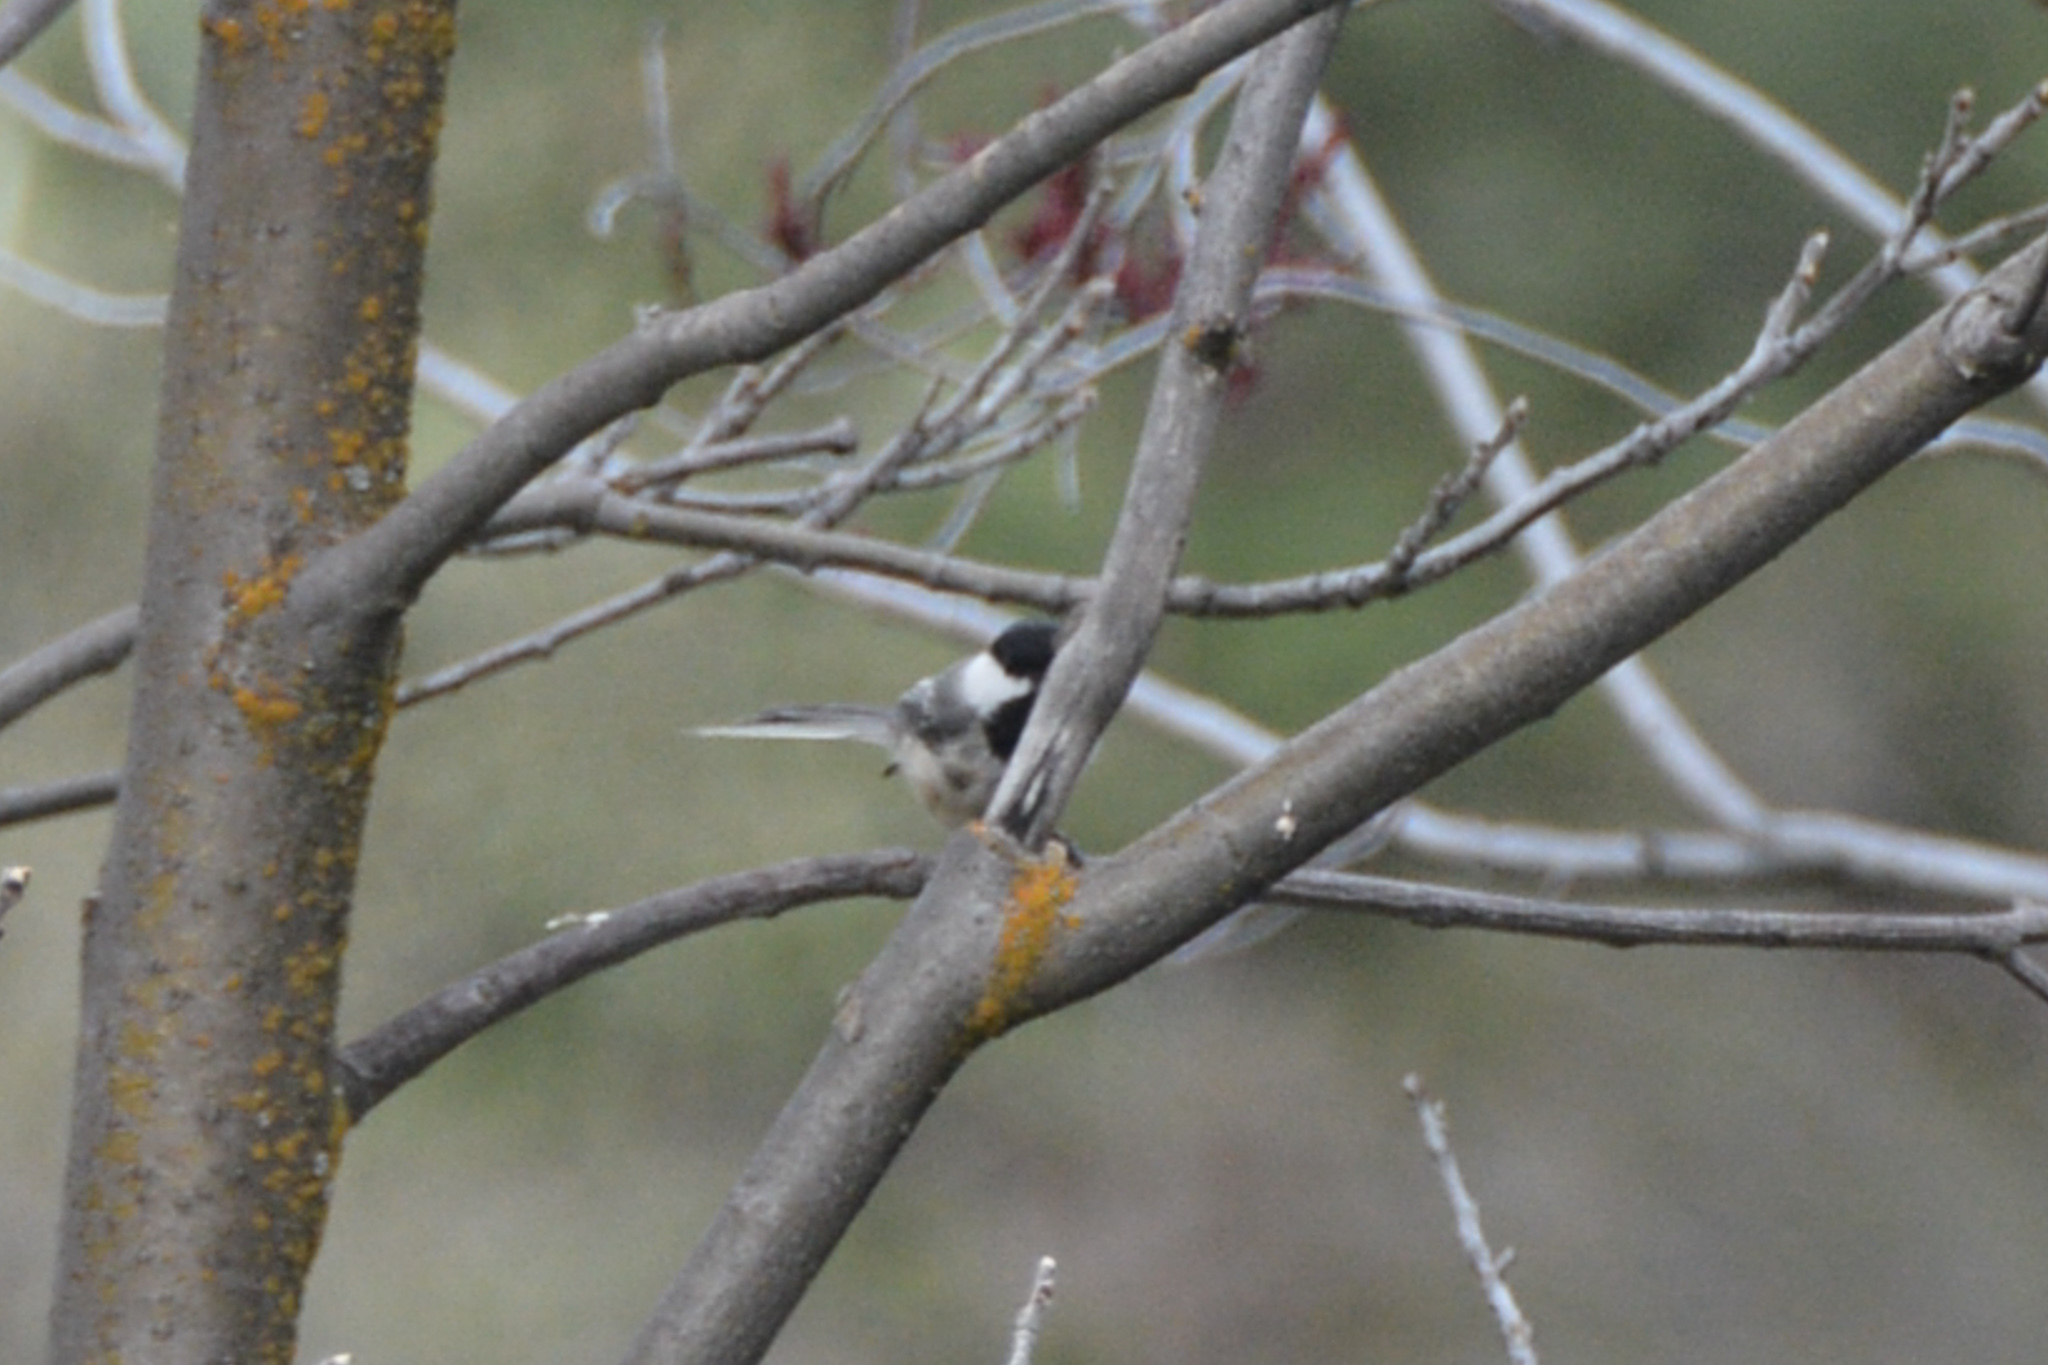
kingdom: Animalia
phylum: Chordata
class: Aves
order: Passeriformes
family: Paridae
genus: Poecile
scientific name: Poecile atricapillus
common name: Black-capped chickadee
